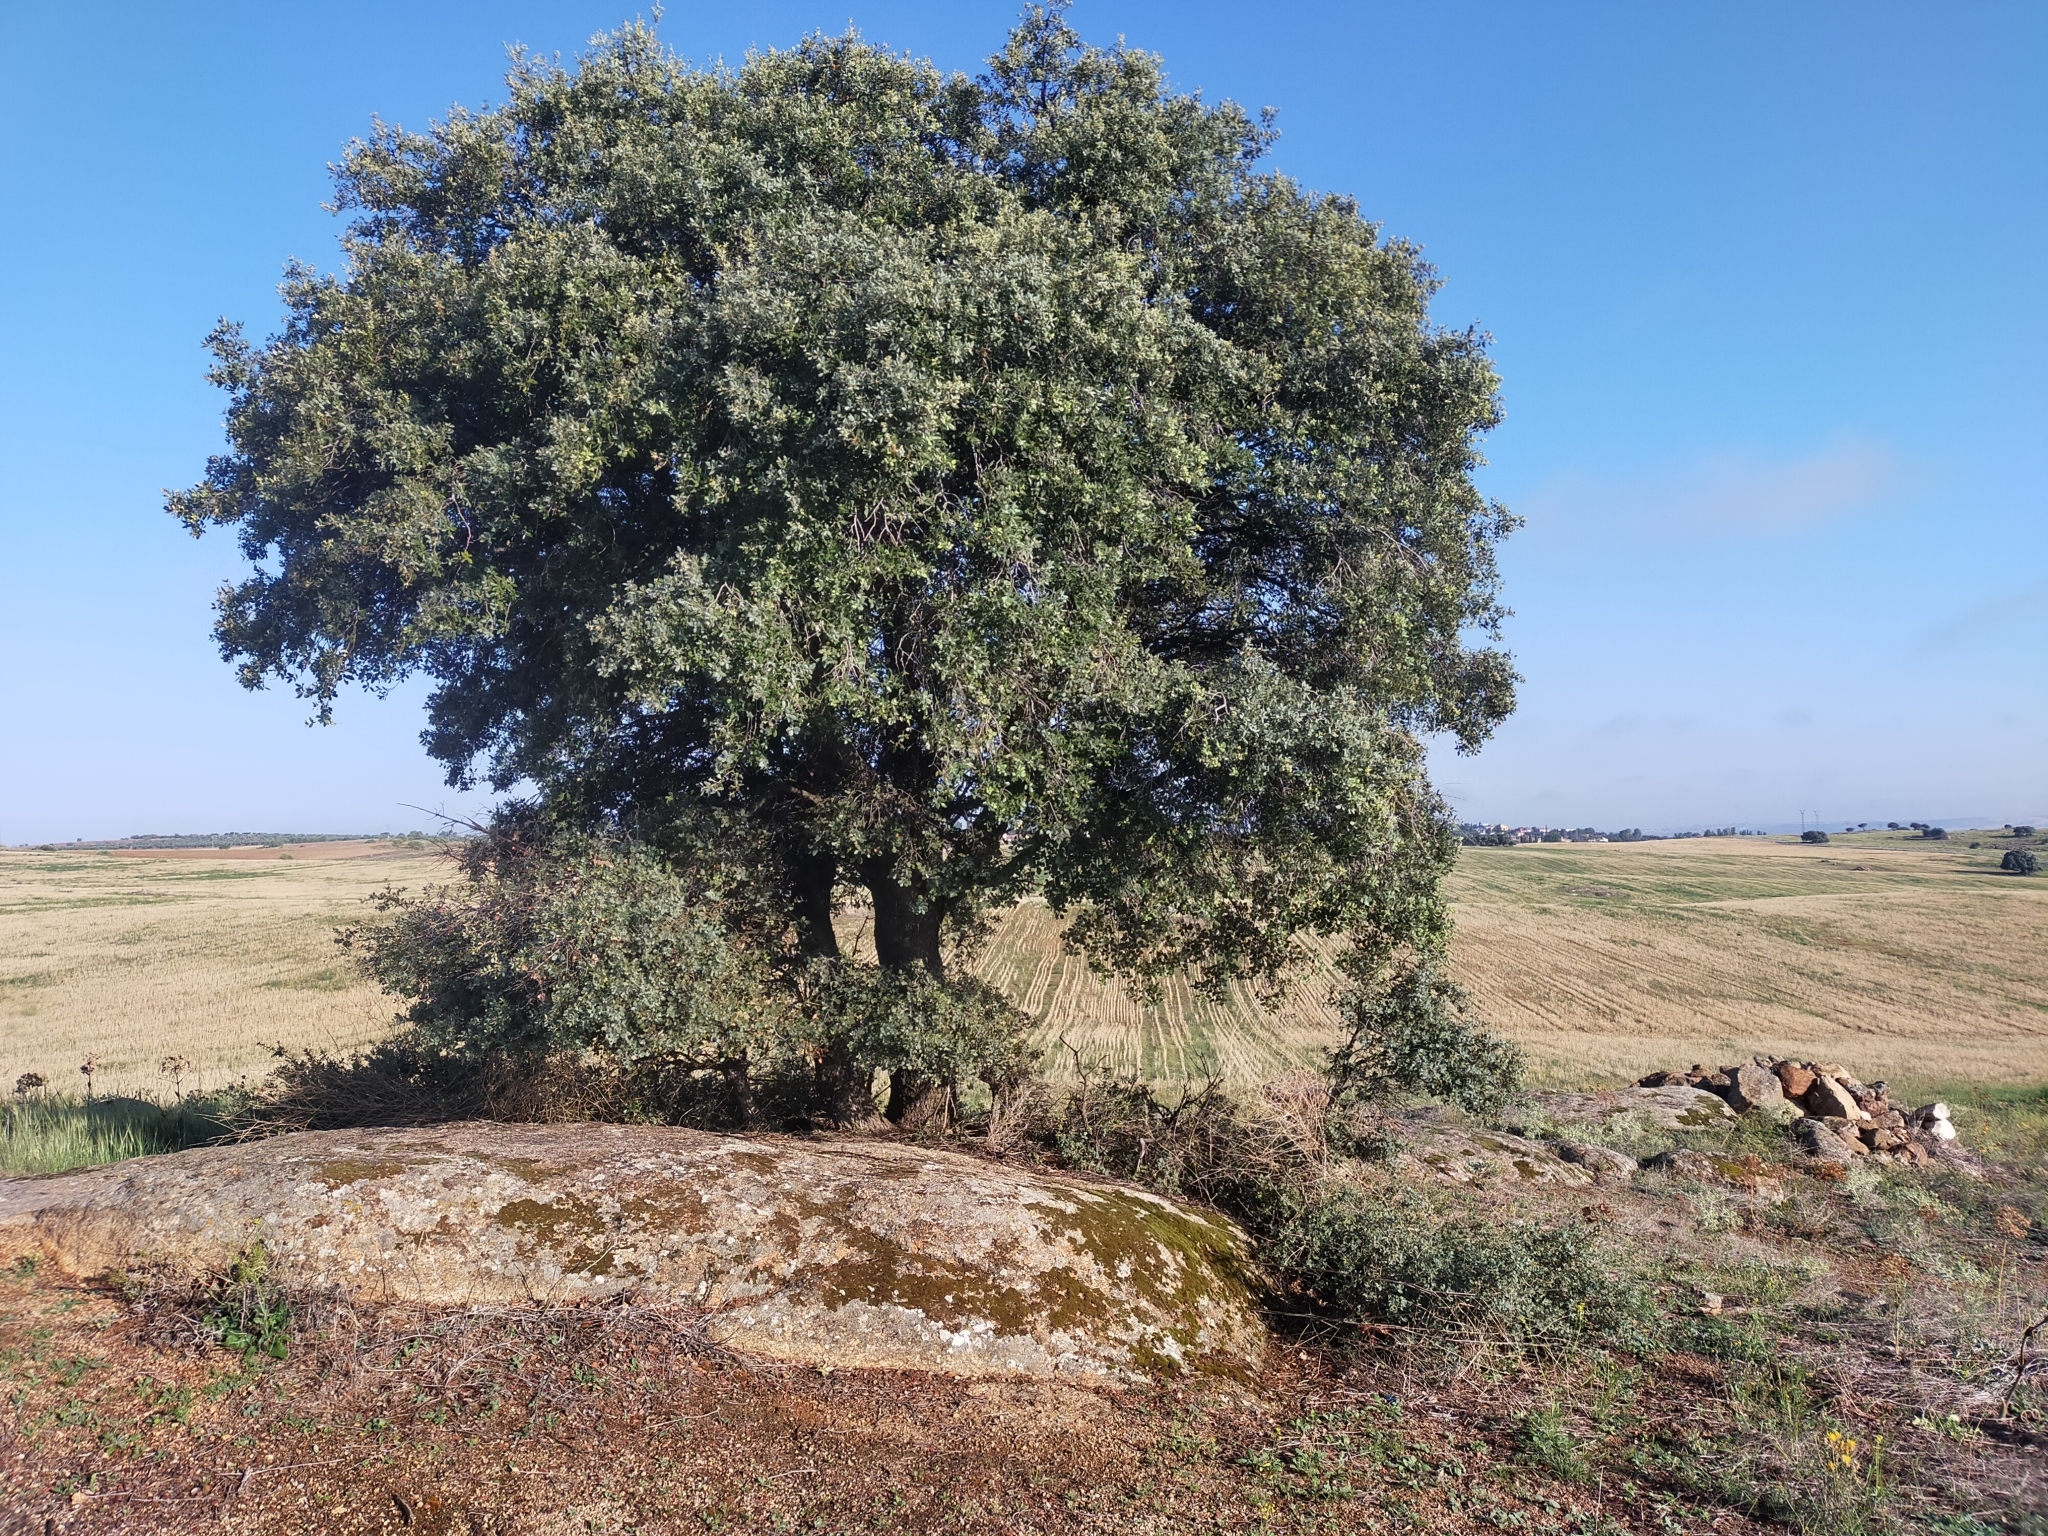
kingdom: Plantae
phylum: Tracheophyta
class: Magnoliopsida
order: Fagales
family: Fagaceae
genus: Quercus
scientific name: Quercus rotundifolia
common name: Holm oak
